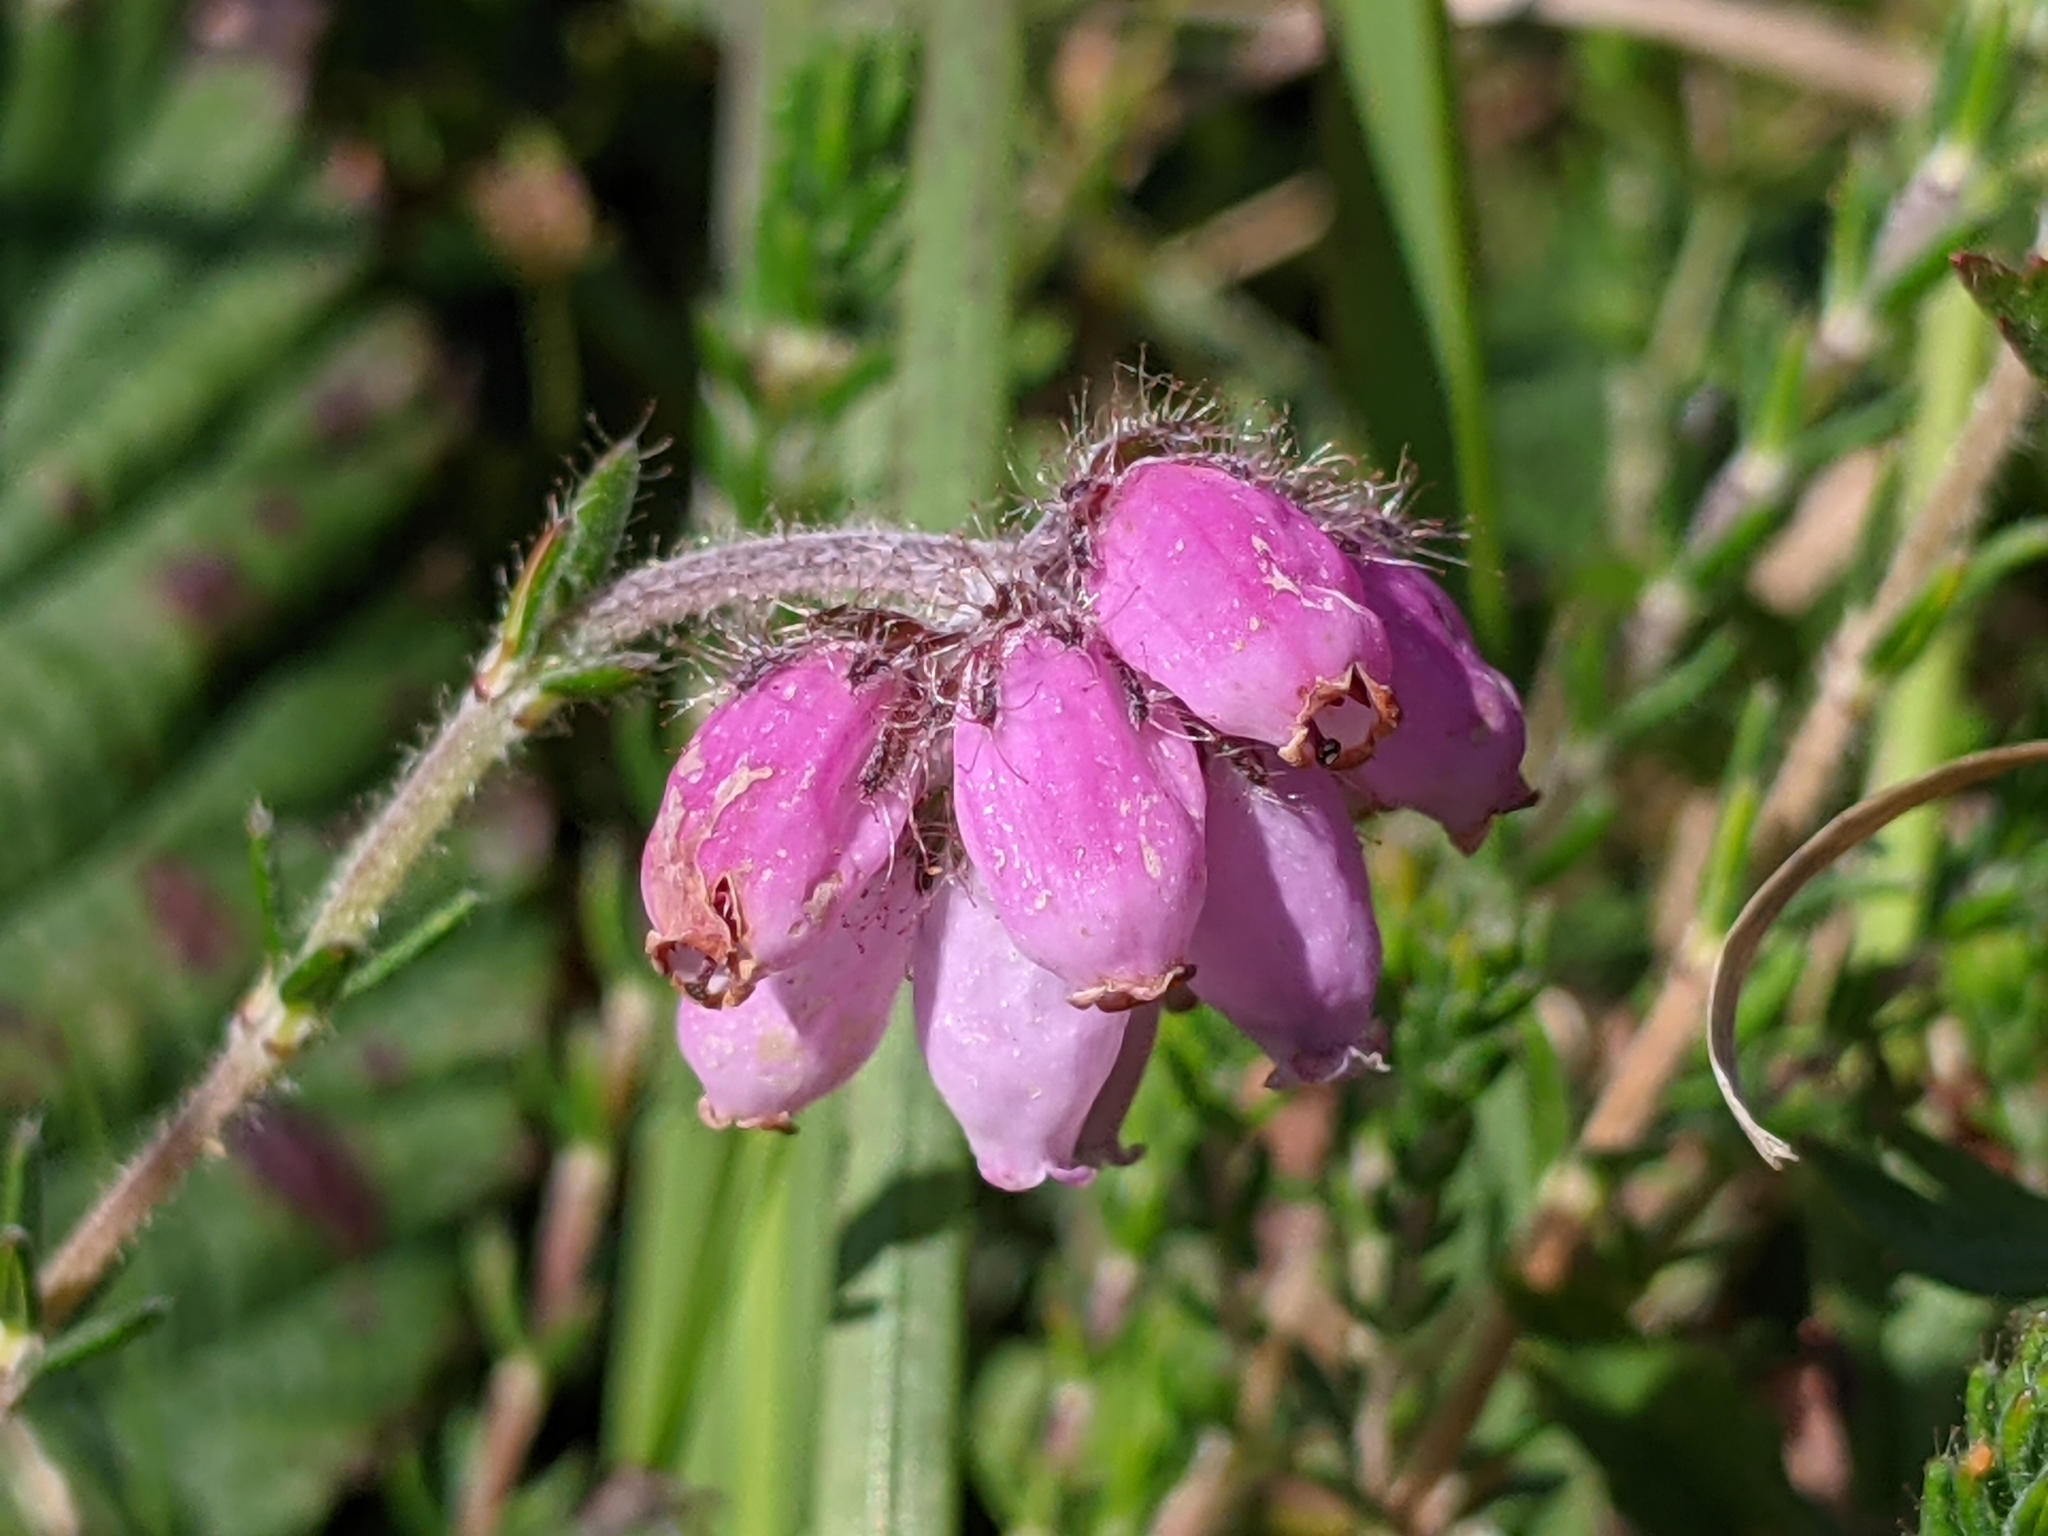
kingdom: Plantae
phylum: Tracheophyta
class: Magnoliopsida
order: Ericales
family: Ericaceae
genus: Erica
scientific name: Erica tetralix
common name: Cross-leaved heath
